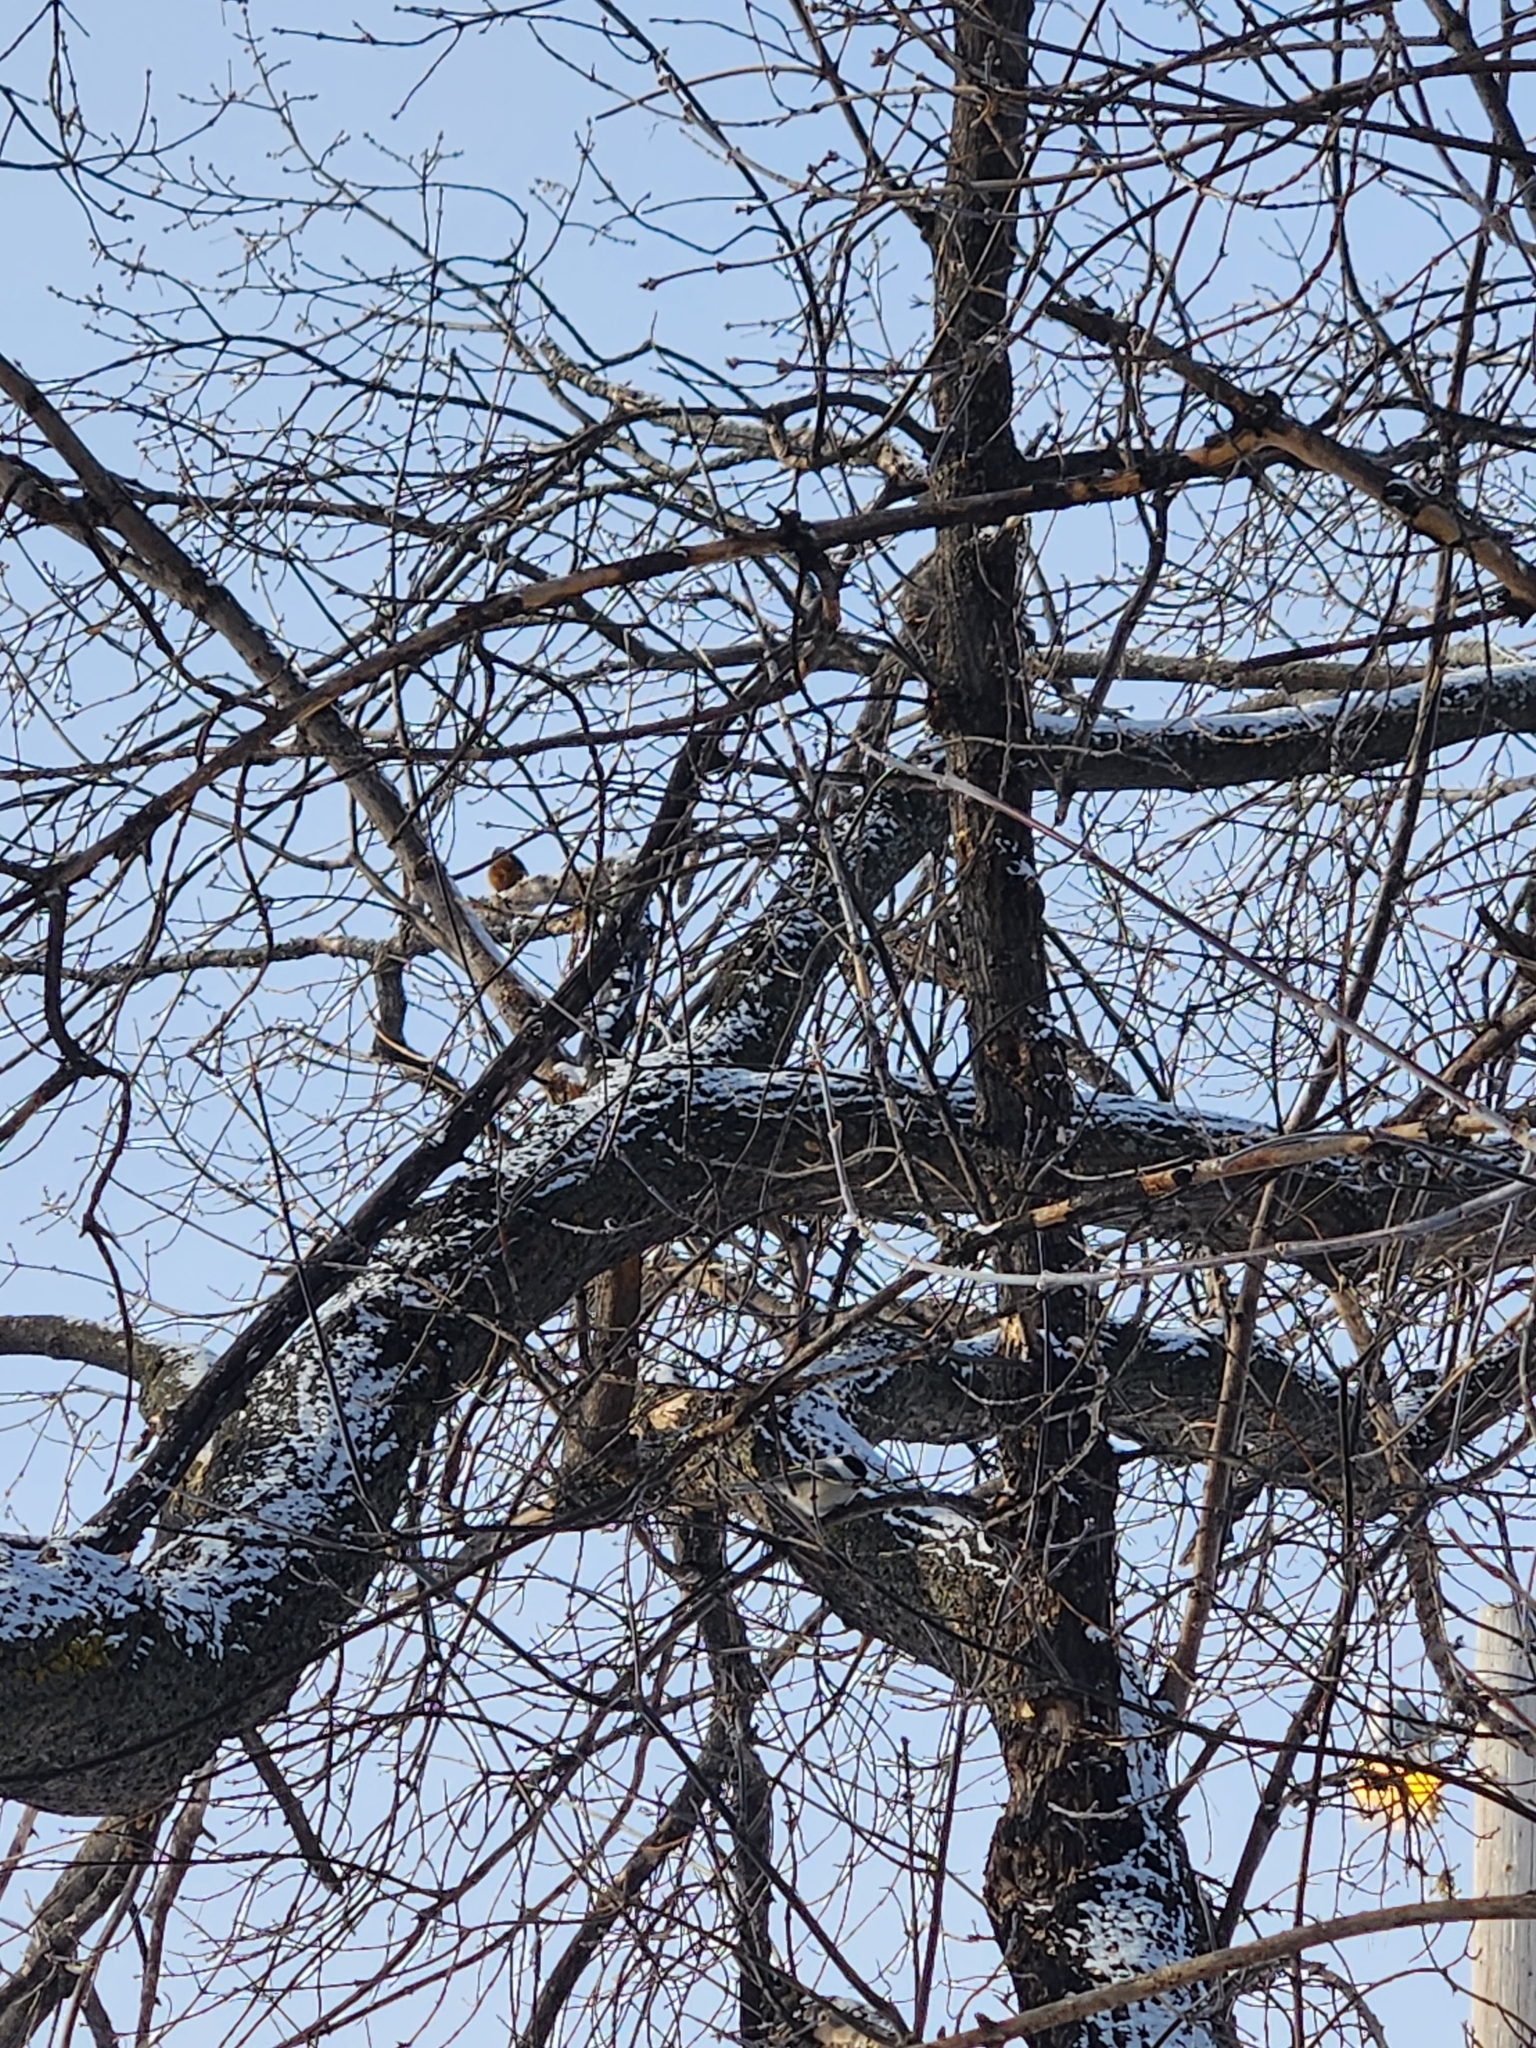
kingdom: Animalia
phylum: Chordata
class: Aves
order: Passeriformes
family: Sittidae
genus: Sitta
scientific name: Sitta canadensis
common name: Red-breasted nuthatch
